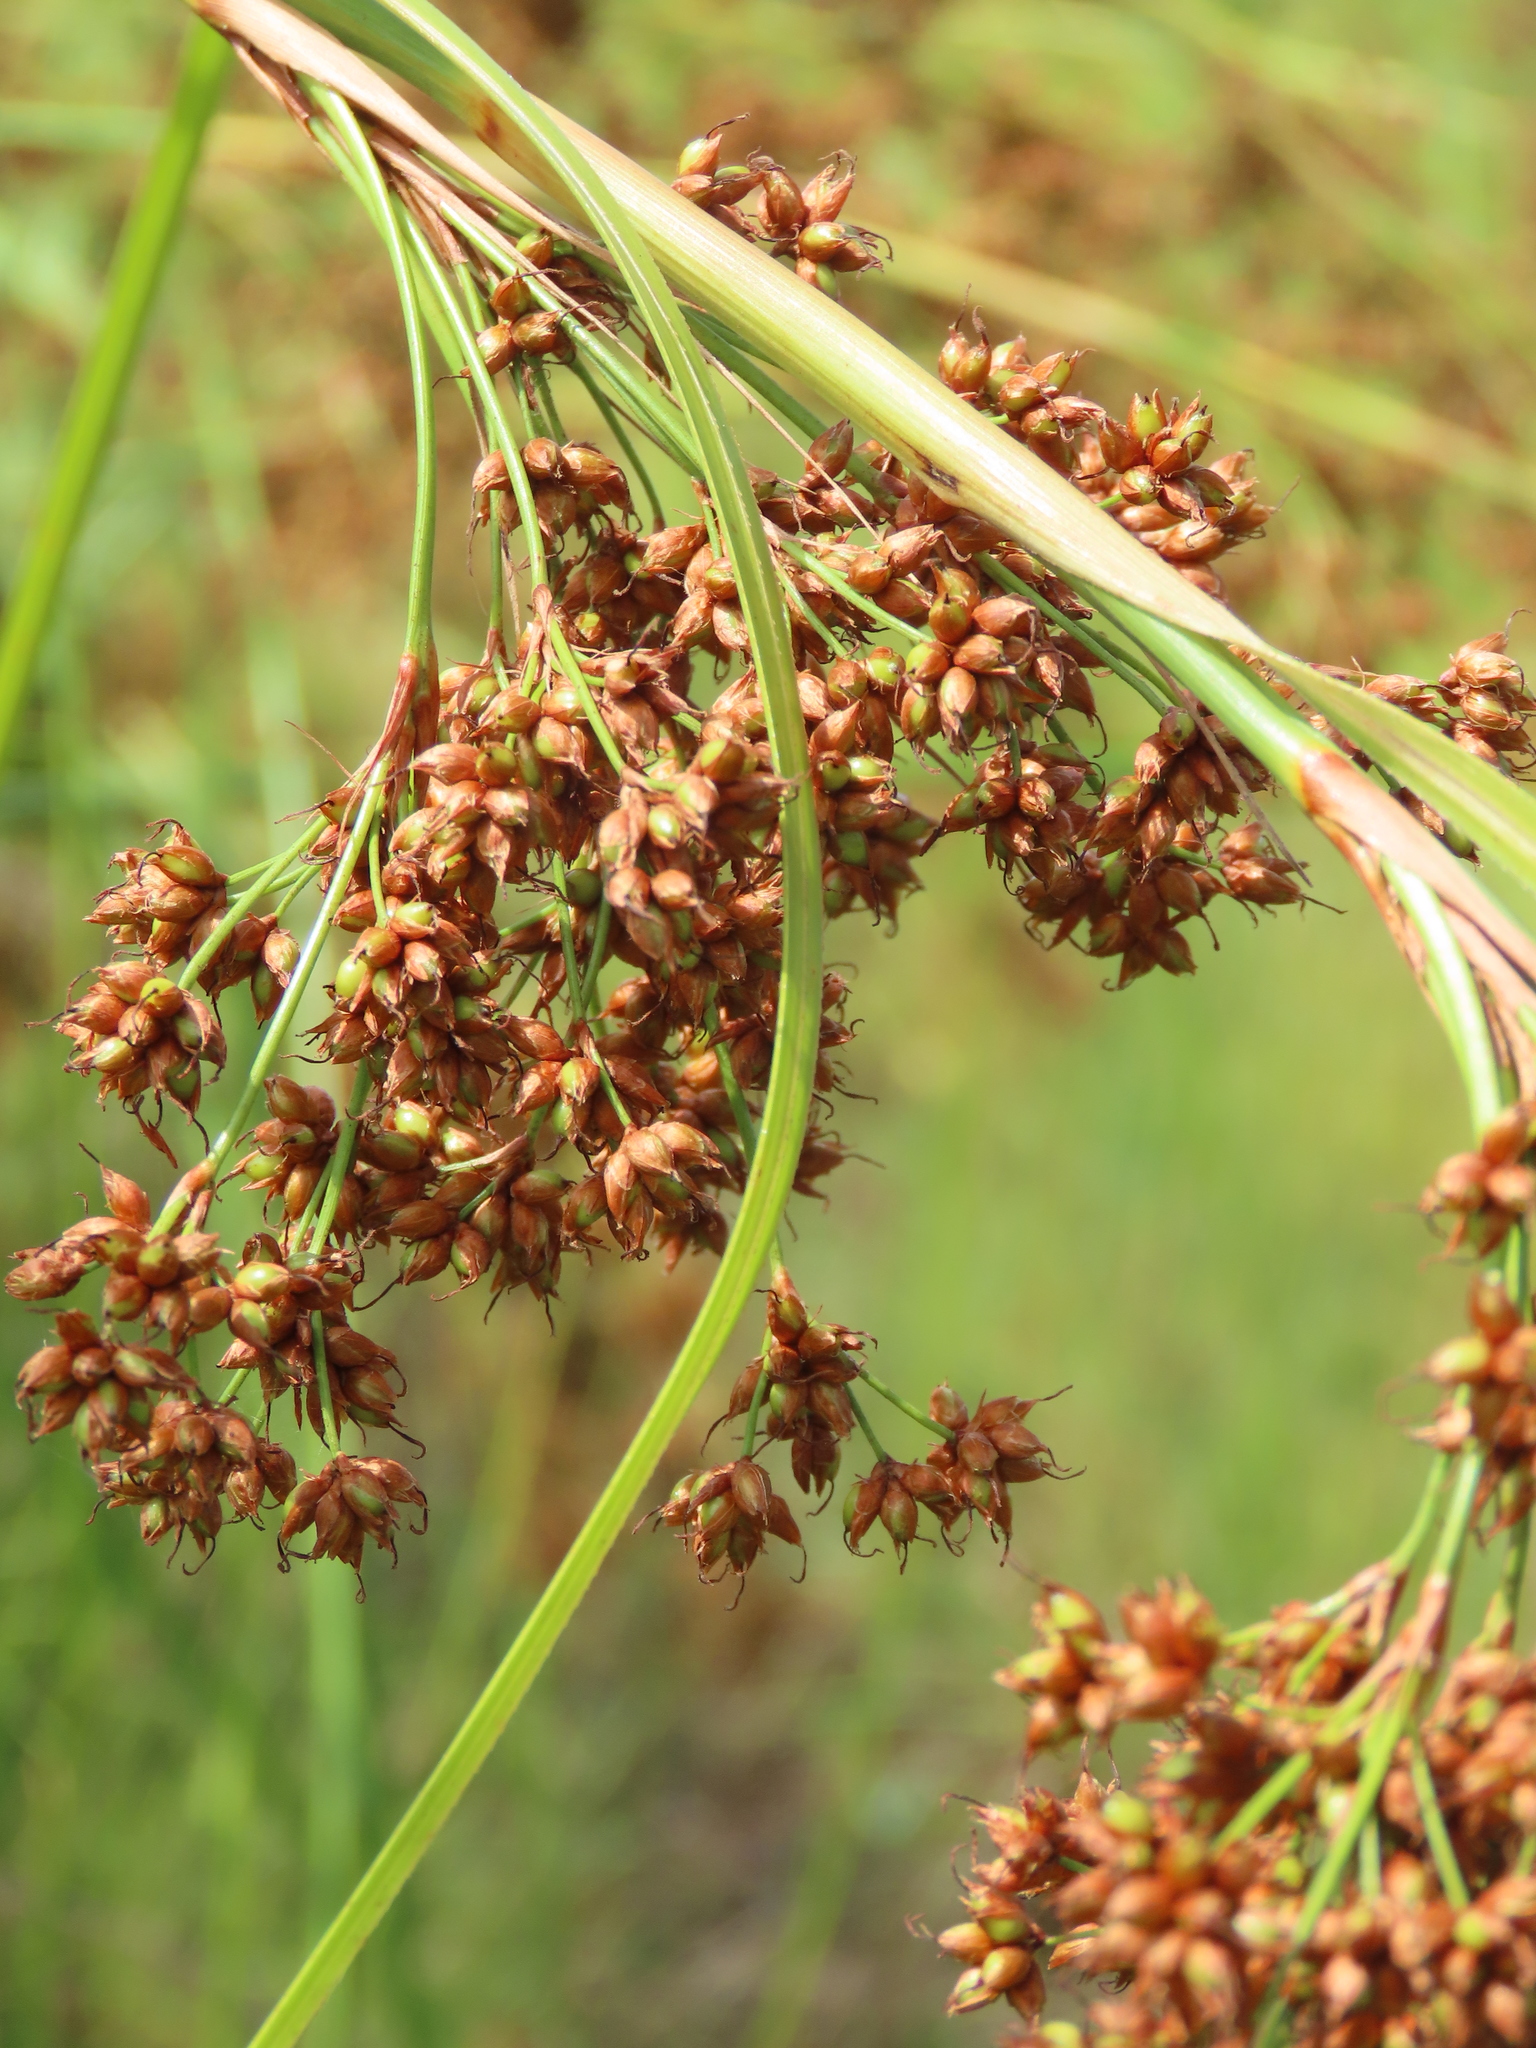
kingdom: Plantae
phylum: Tracheophyta
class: Liliopsida
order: Poales
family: Cyperaceae
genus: Cladium
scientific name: Cladium mariscus
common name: Great fen-sedge
